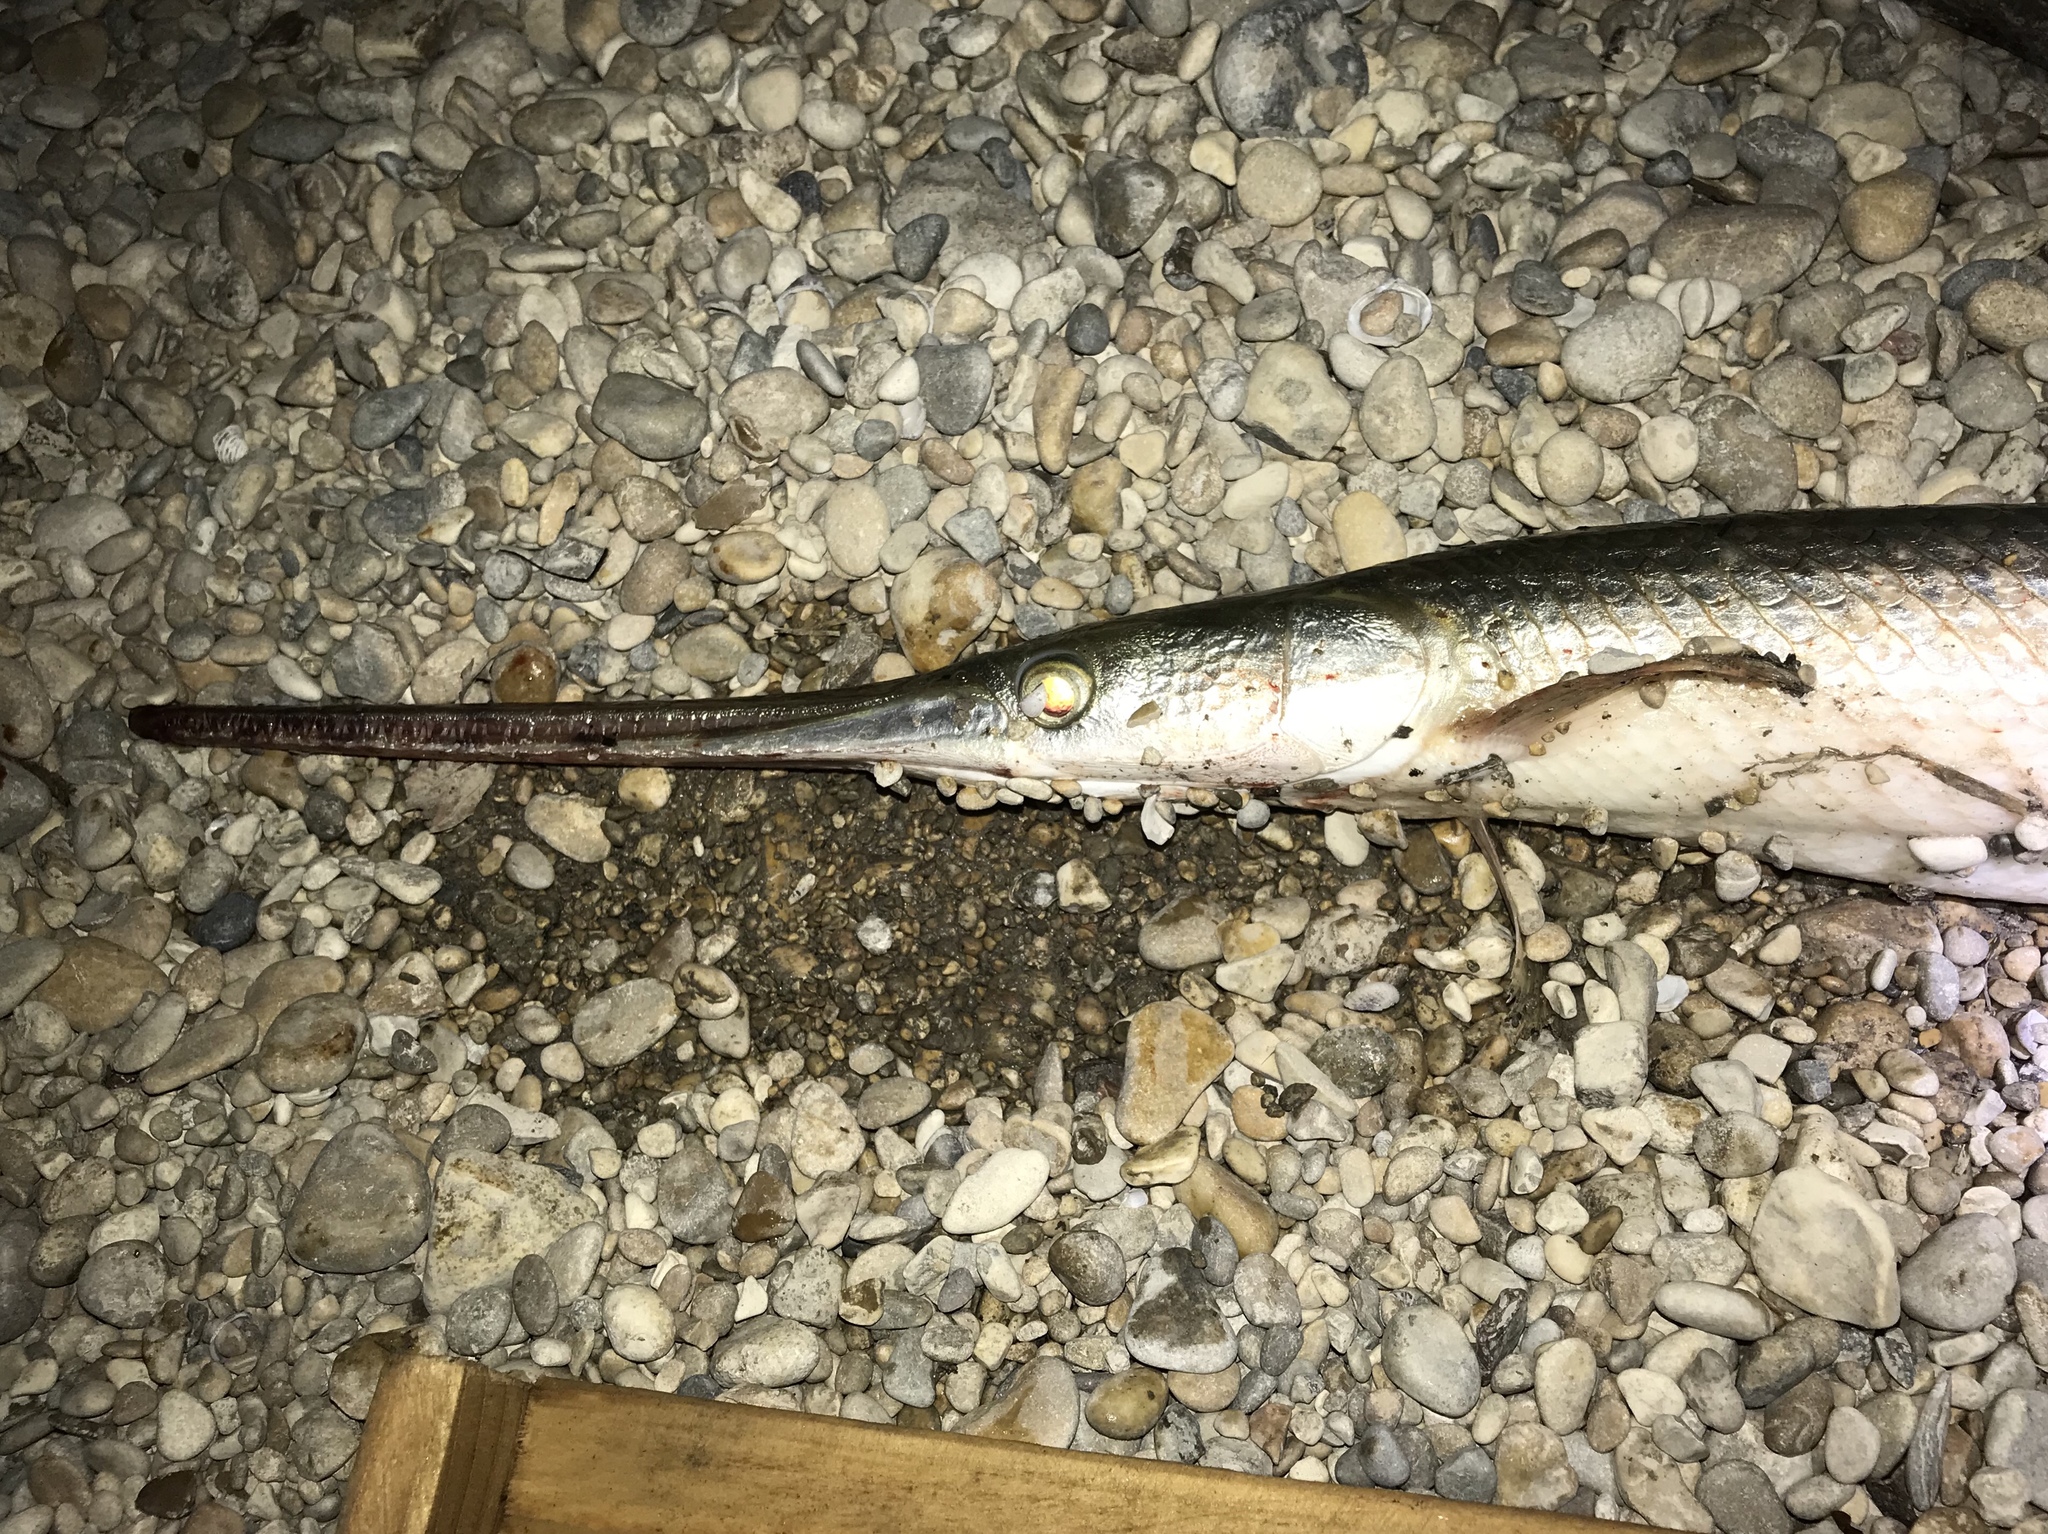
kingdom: Animalia
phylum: Chordata
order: Lepisosteiformes
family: Lepisosteidae
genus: Lepisosteus
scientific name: Lepisosteus osseus
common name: Longnose gar
